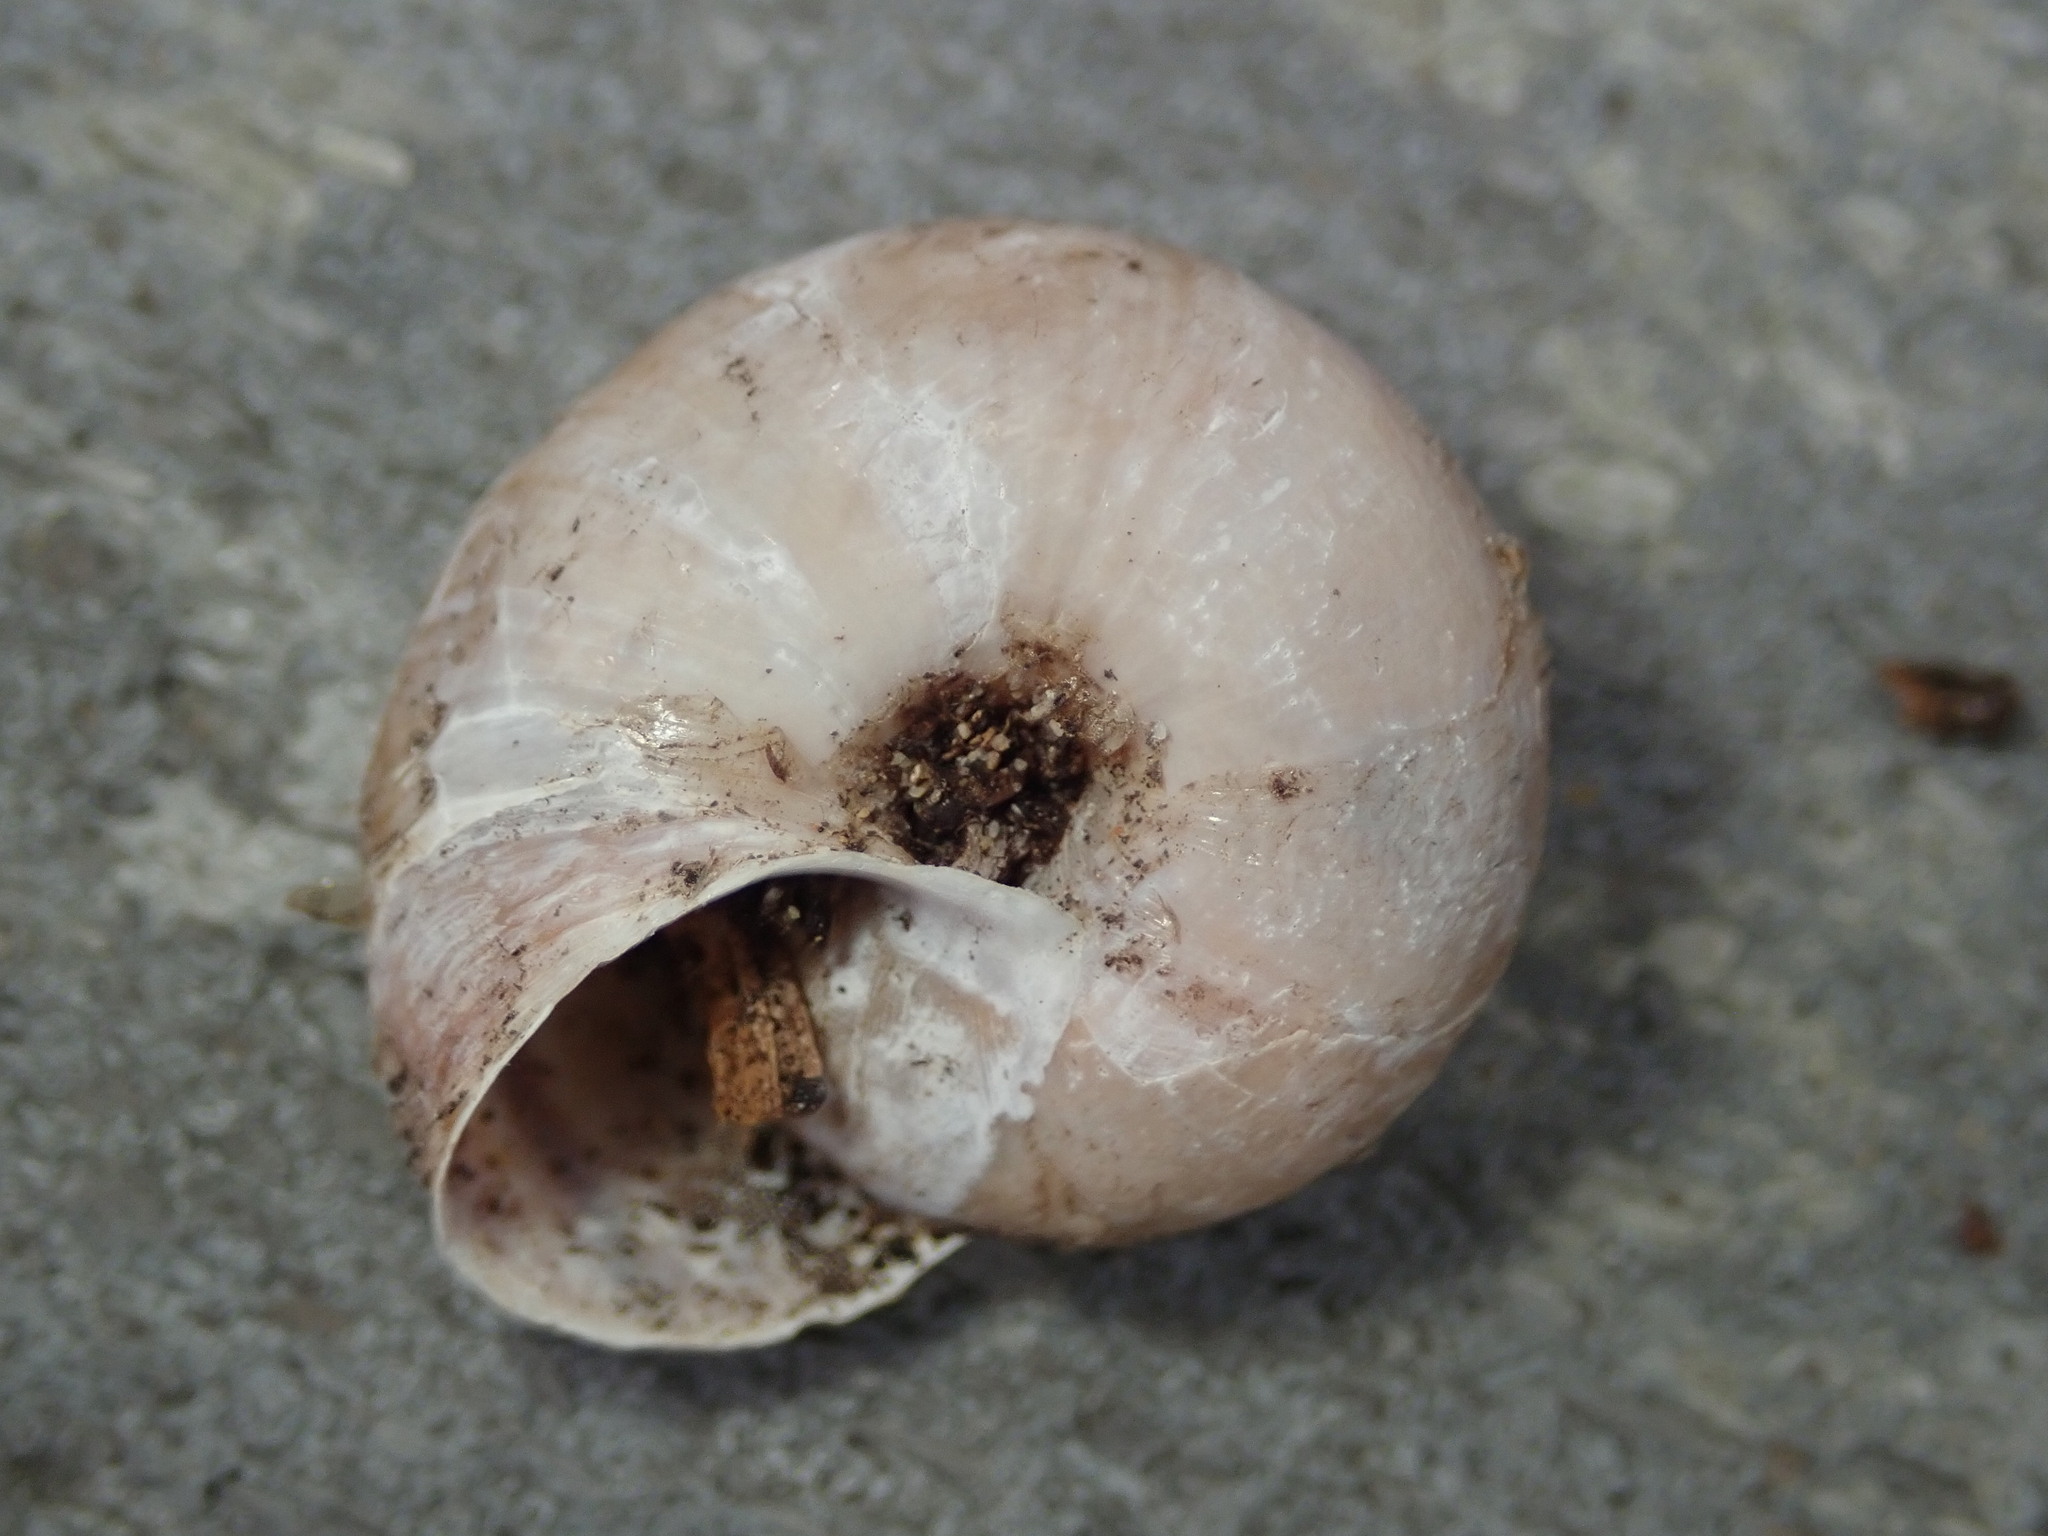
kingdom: Animalia
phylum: Mollusca
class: Gastropoda
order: Stylommatophora
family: Xanthonychidae
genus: Helminthoglypta
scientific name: Helminthoglypta umbilicata
